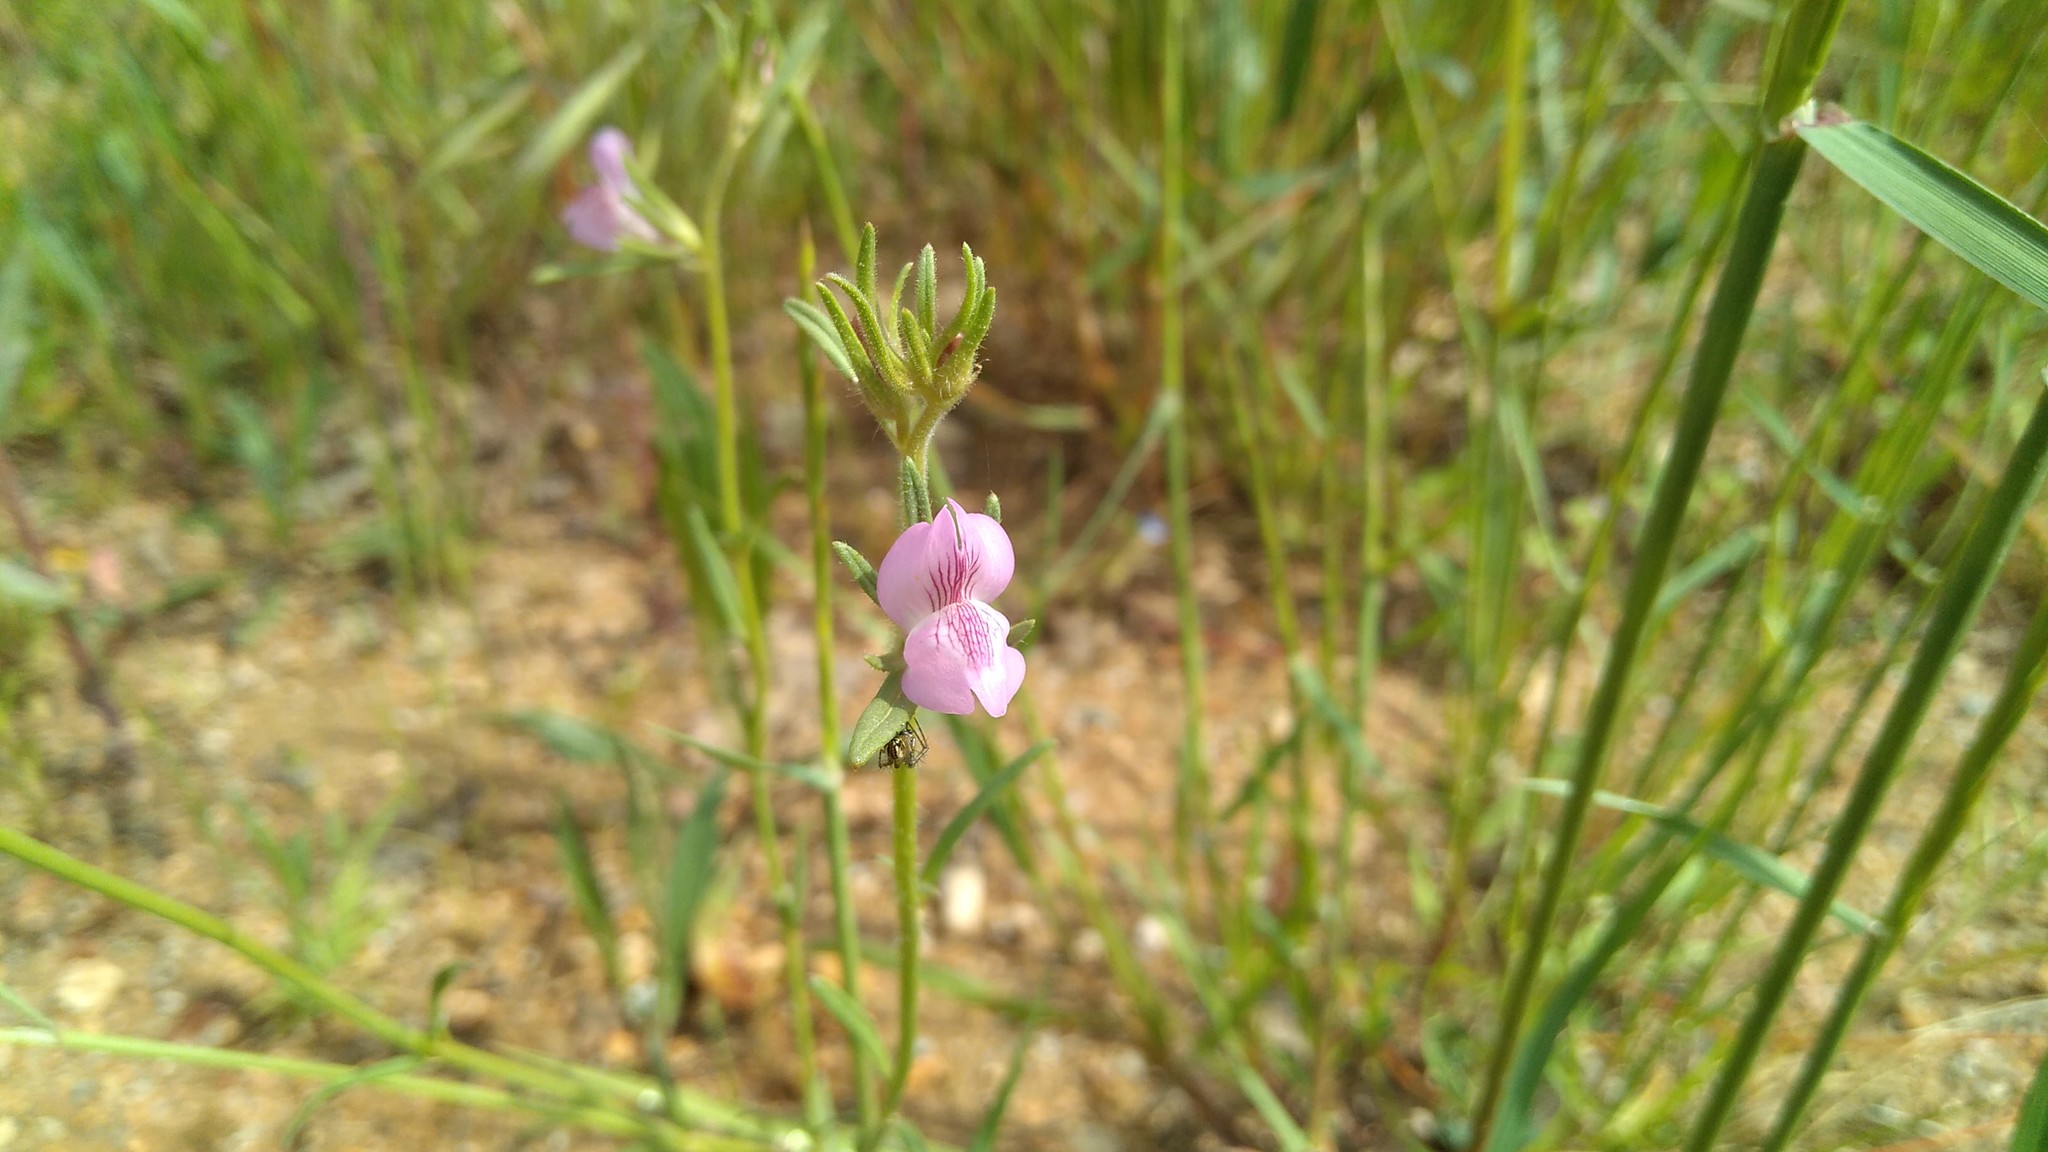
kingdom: Plantae
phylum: Tracheophyta
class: Magnoliopsida
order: Lamiales
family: Plantaginaceae
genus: Misopates
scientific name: Misopates orontium
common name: Weasel's-snout
